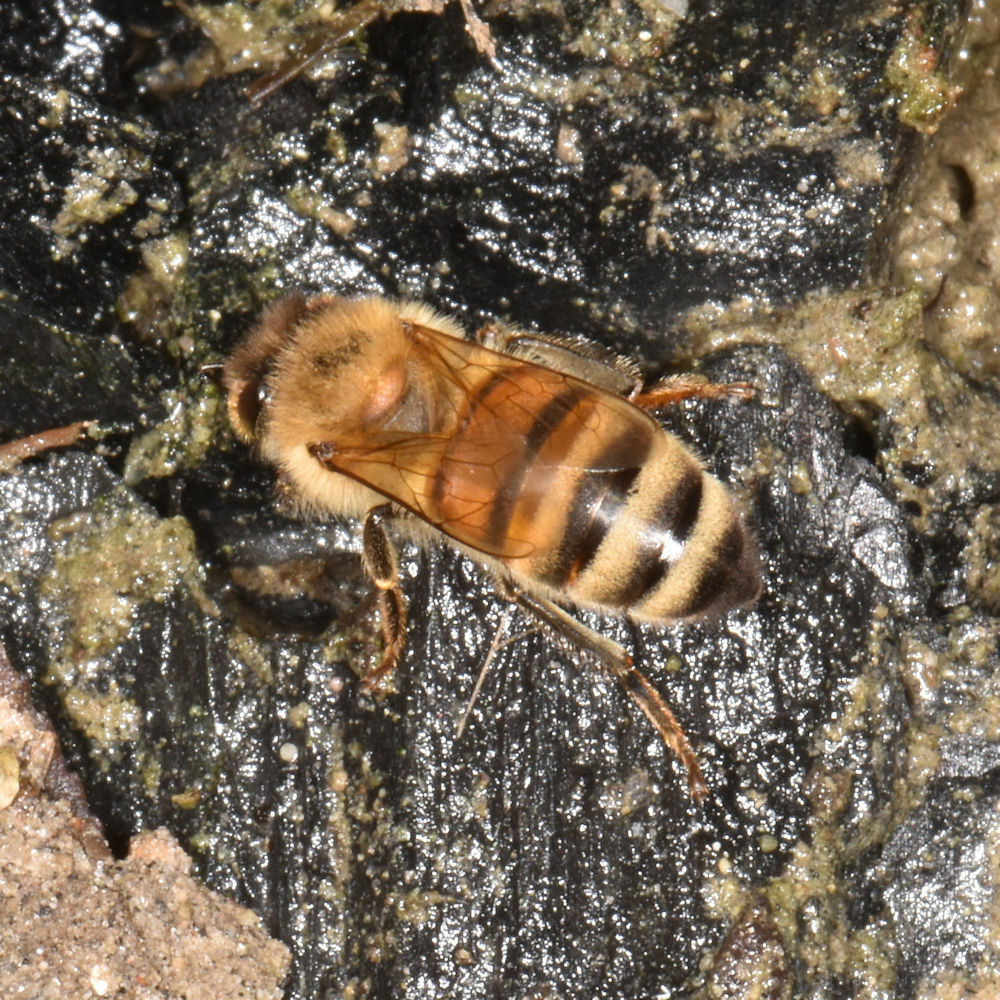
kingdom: Animalia
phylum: Arthropoda
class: Insecta
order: Hymenoptera
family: Apidae
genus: Apis
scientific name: Apis mellifera
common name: Honey bee
